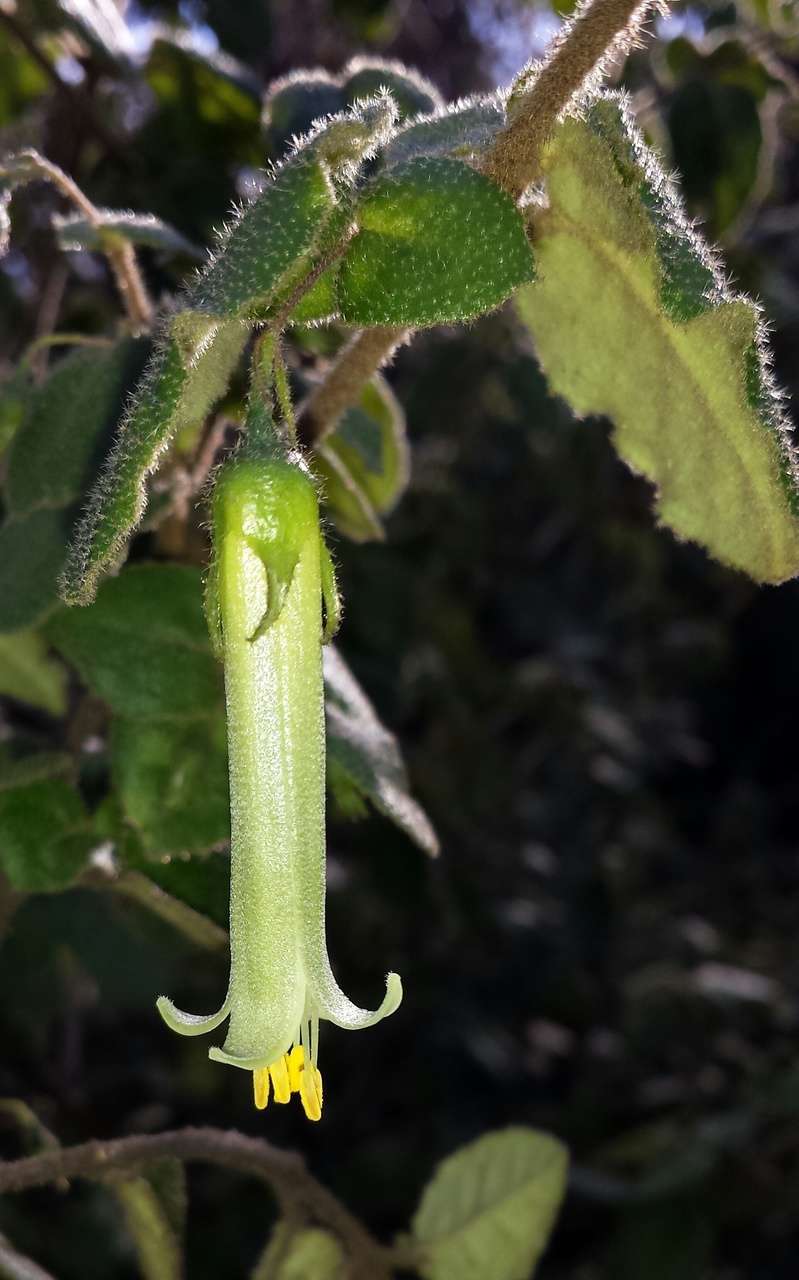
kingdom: Plantae
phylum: Tracheophyta
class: Magnoliopsida
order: Sapindales
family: Rutaceae
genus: Correa
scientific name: Correa aemula
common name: Hairy correa
